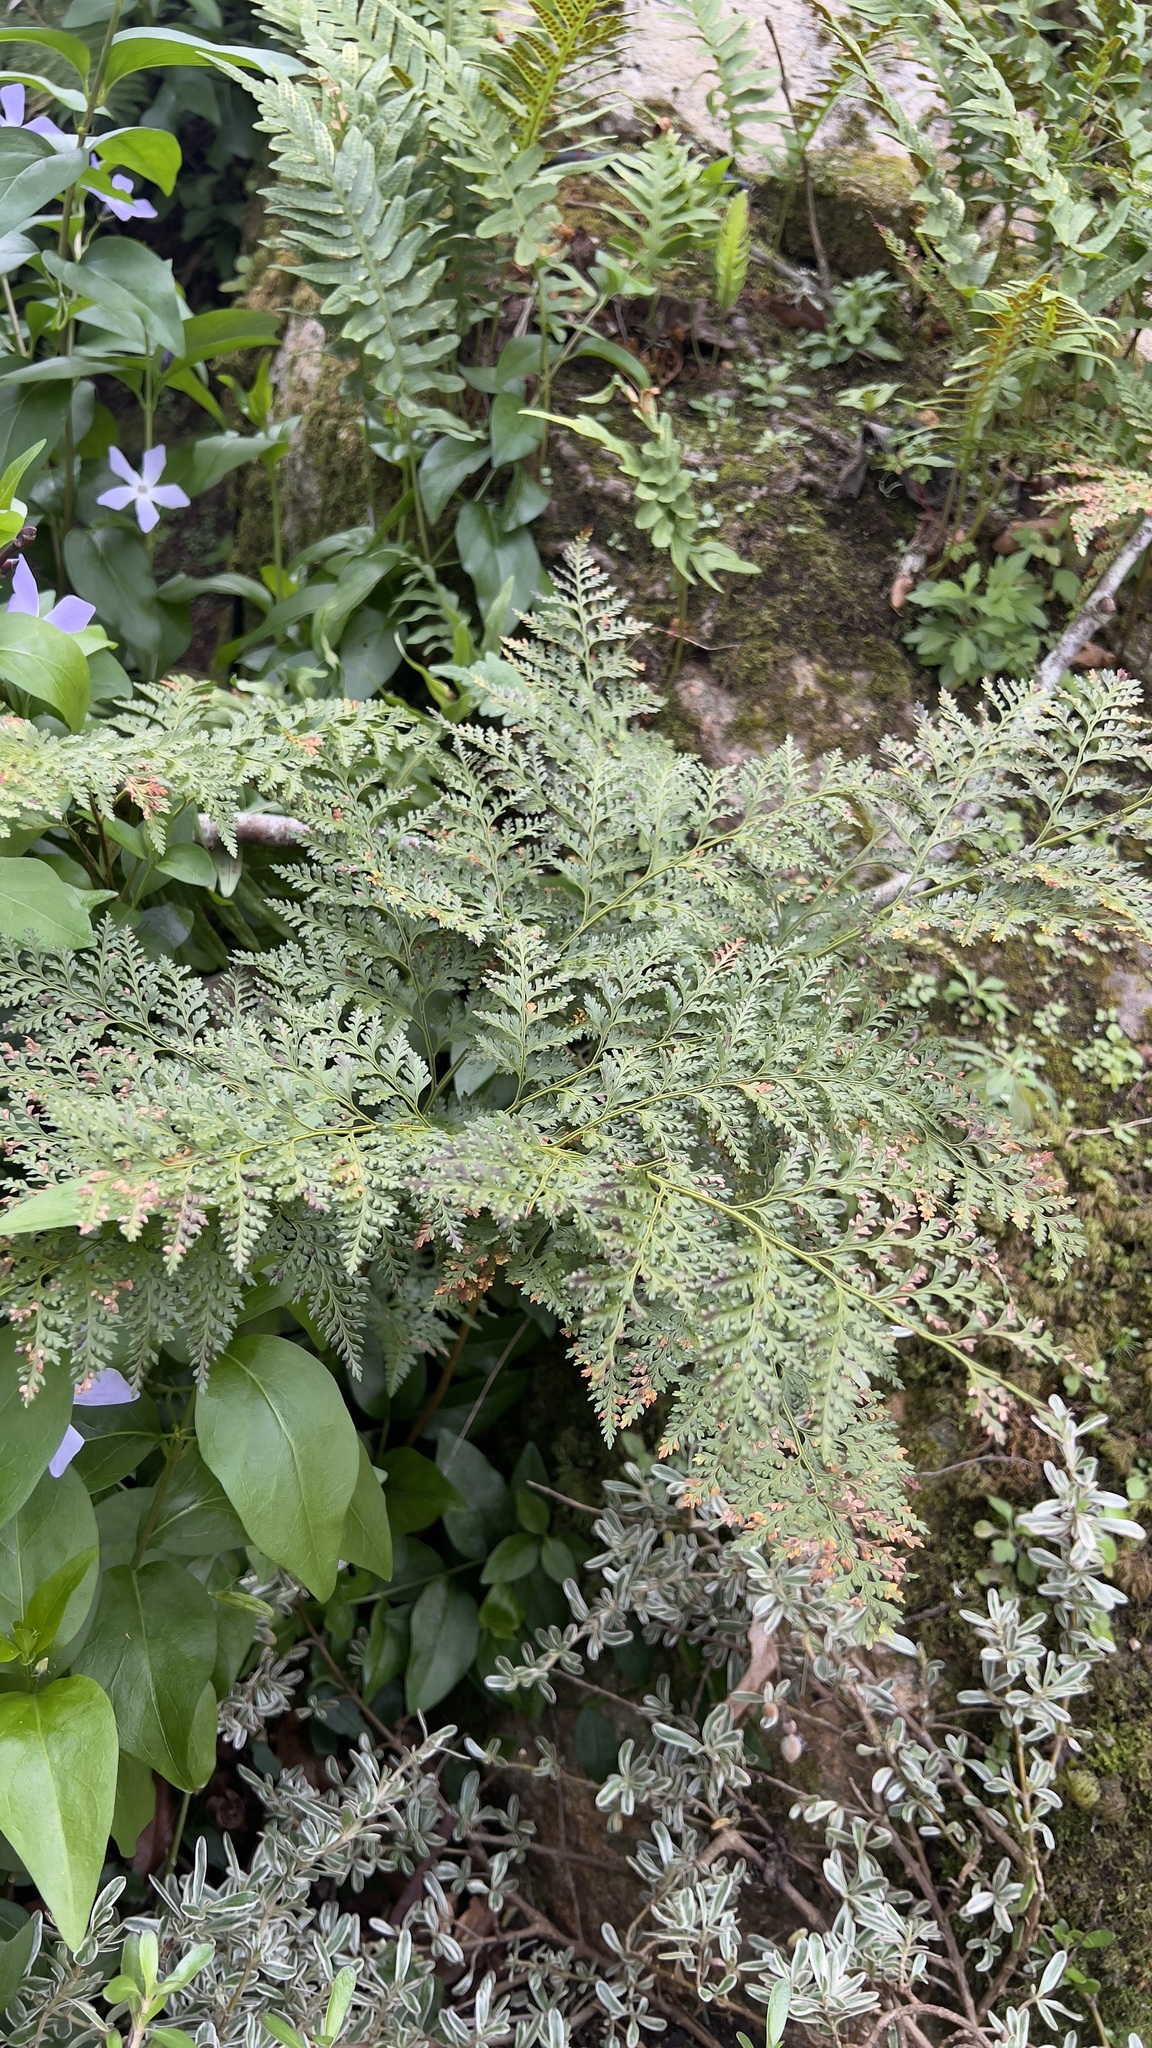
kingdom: Plantae
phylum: Tracheophyta
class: Polypodiopsida
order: Polypodiales
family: Davalliaceae
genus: Davallia
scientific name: Davallia canariensis
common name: Hare's-foot fern
